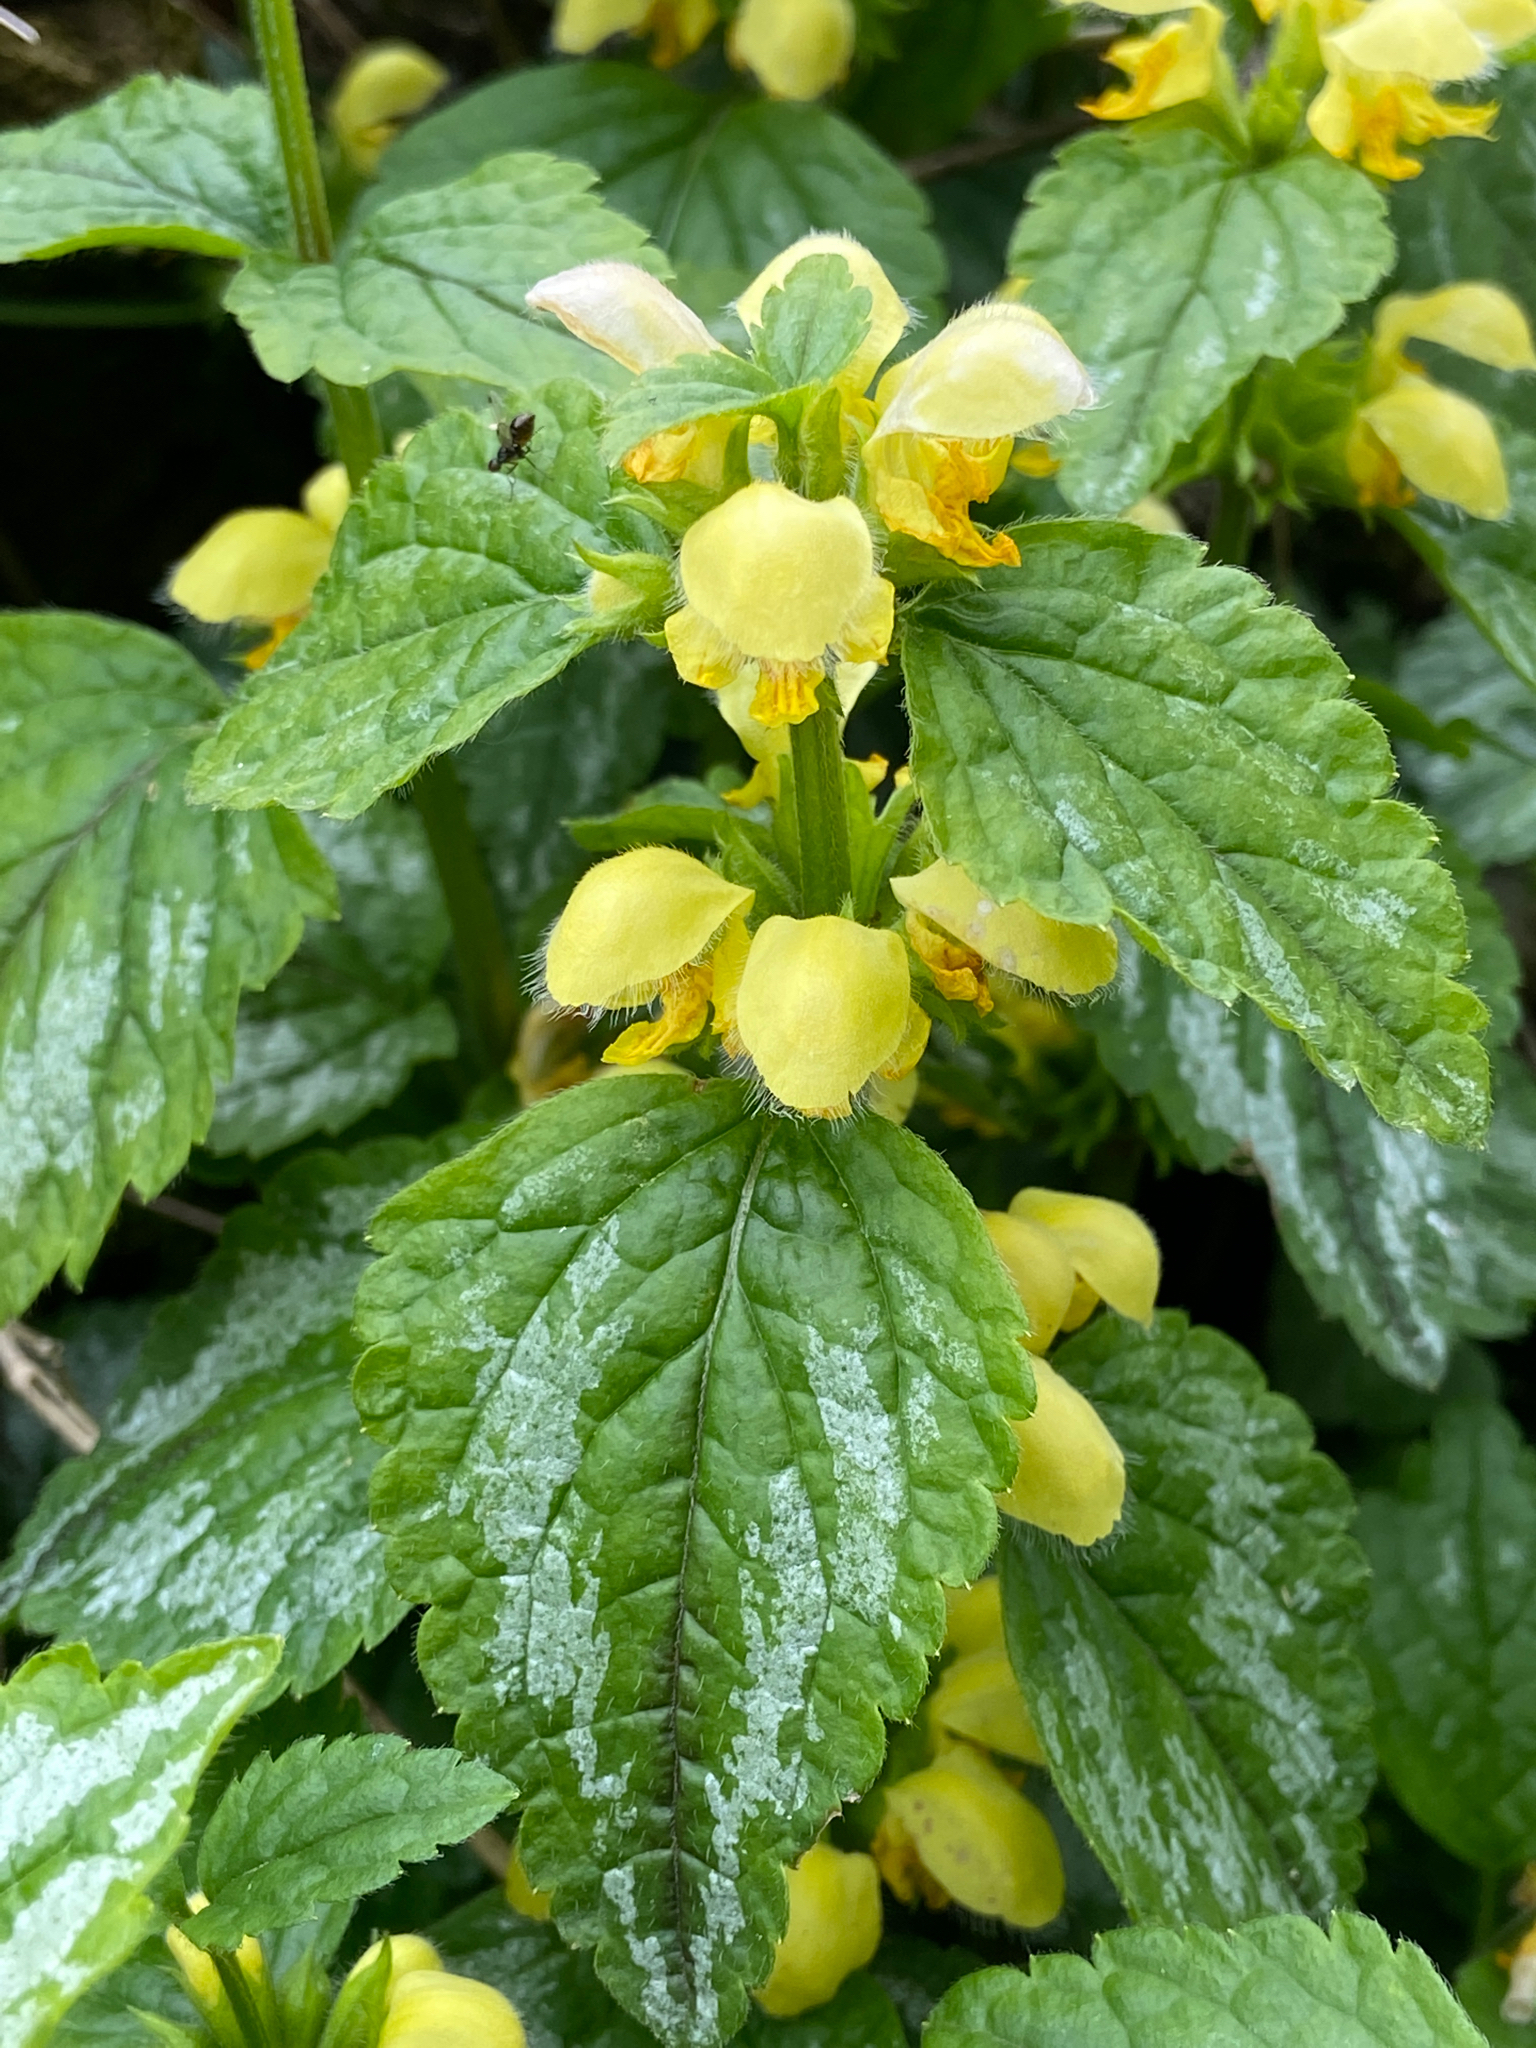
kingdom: Plantae
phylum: Tracheophyta
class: Magnoliopsida
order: Lamiales
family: Lamiaceae
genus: Lamium
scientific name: Lamium galeobdolon
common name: Yellow archangel
